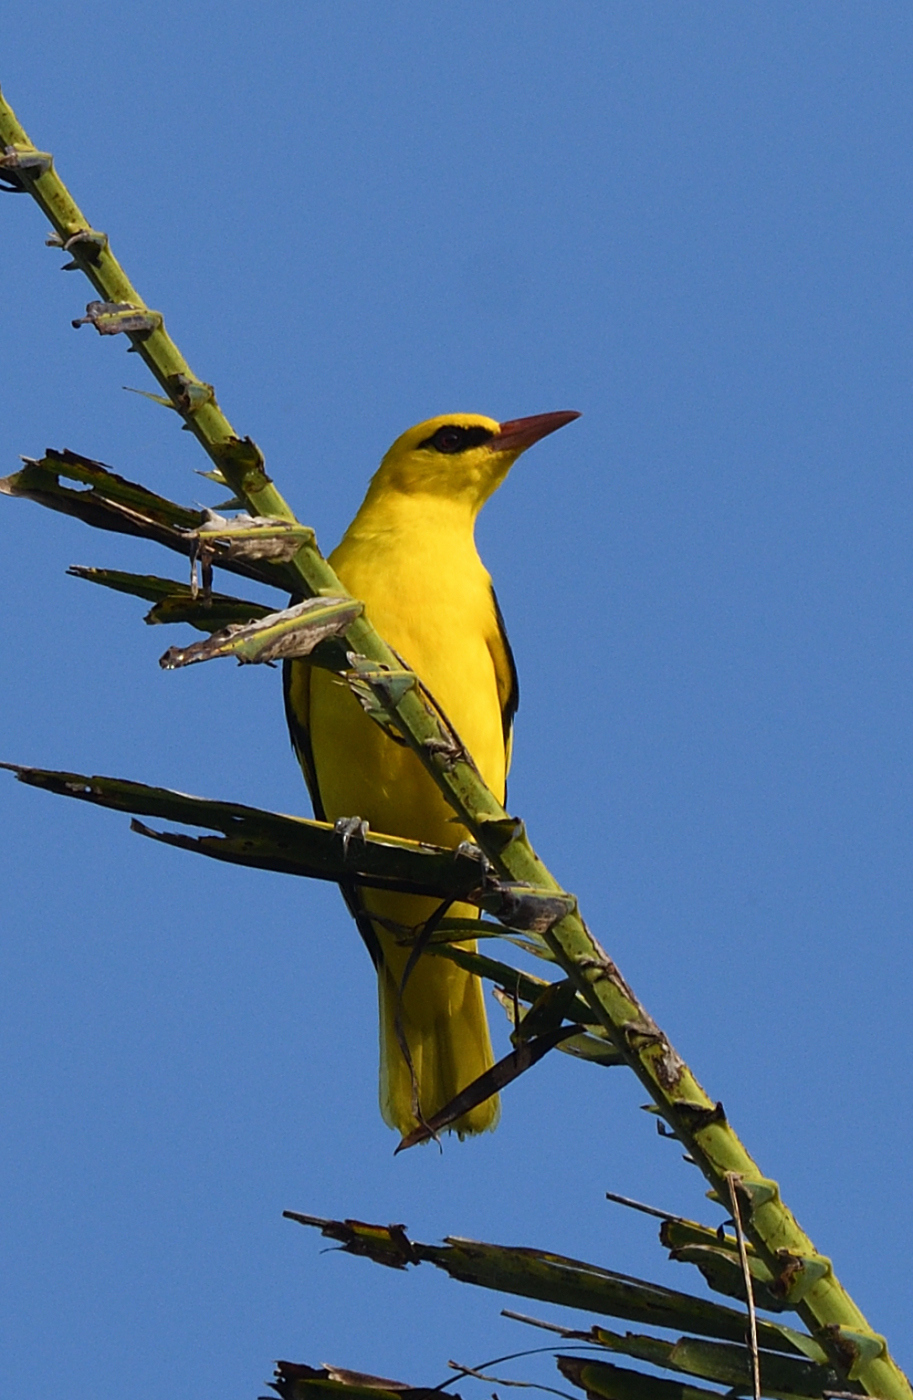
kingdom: Animalia
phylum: Chordata
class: Aves
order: Passeriformes
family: Oriolidae
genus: Oriolus
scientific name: Oriolus kundoo
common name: Indian golden oriole
